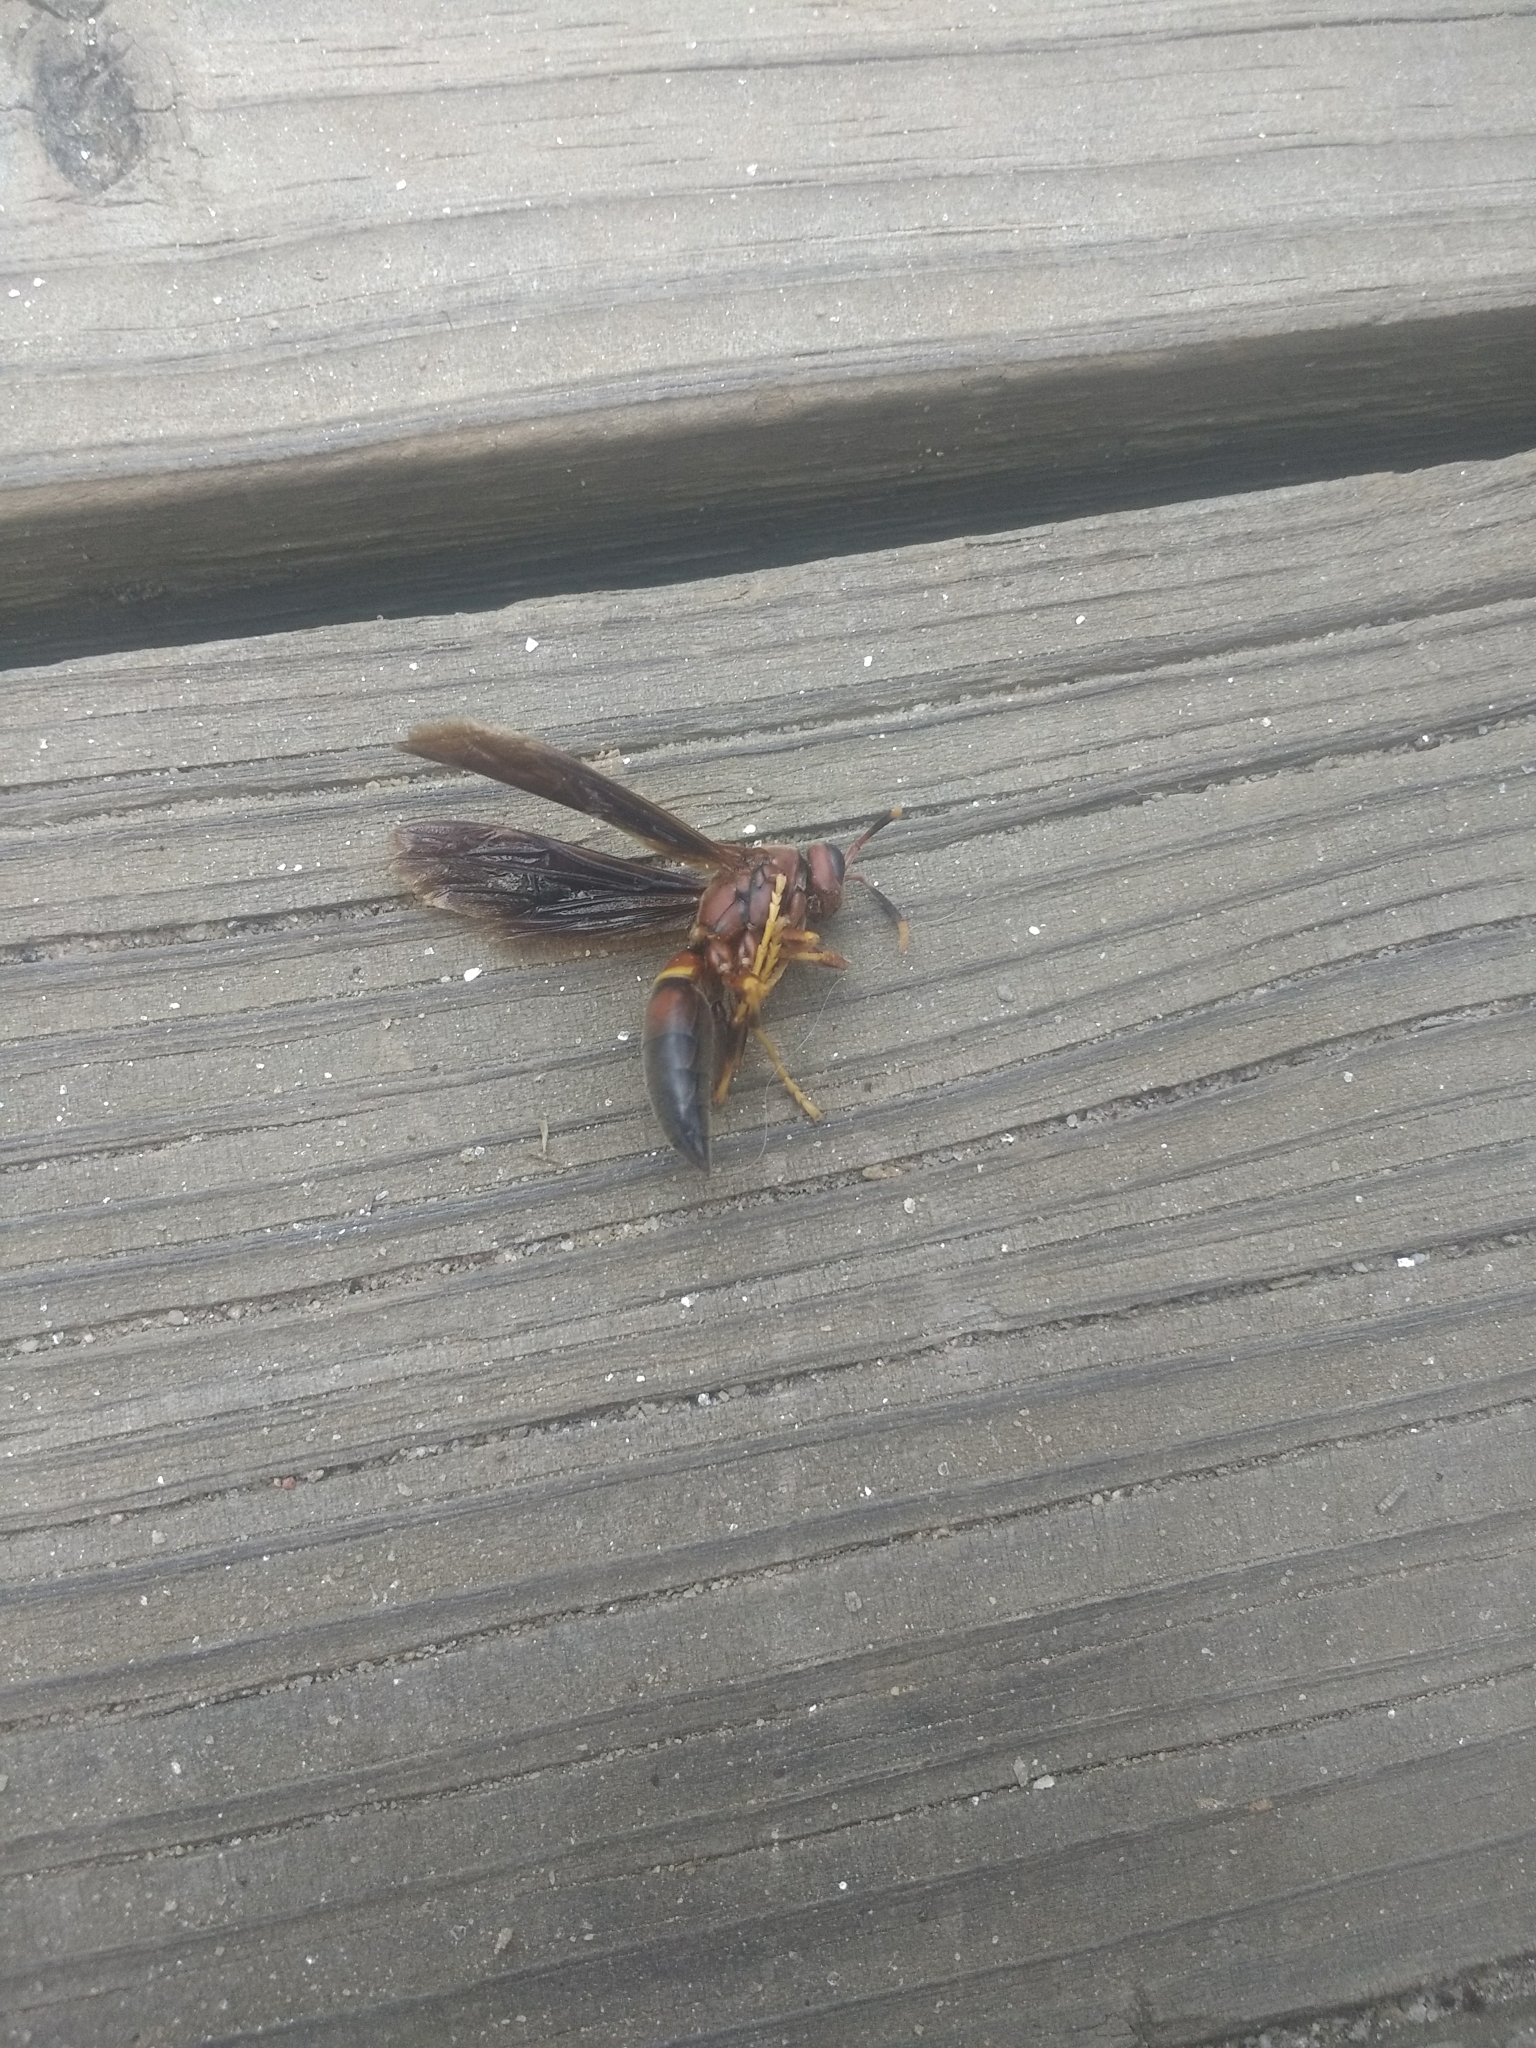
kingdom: Animalia
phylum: Arthropoda
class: Insecta
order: Hymenoptera
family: Eumenidae
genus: Polistes
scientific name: Polistes annularis
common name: Ringed paper wasp
